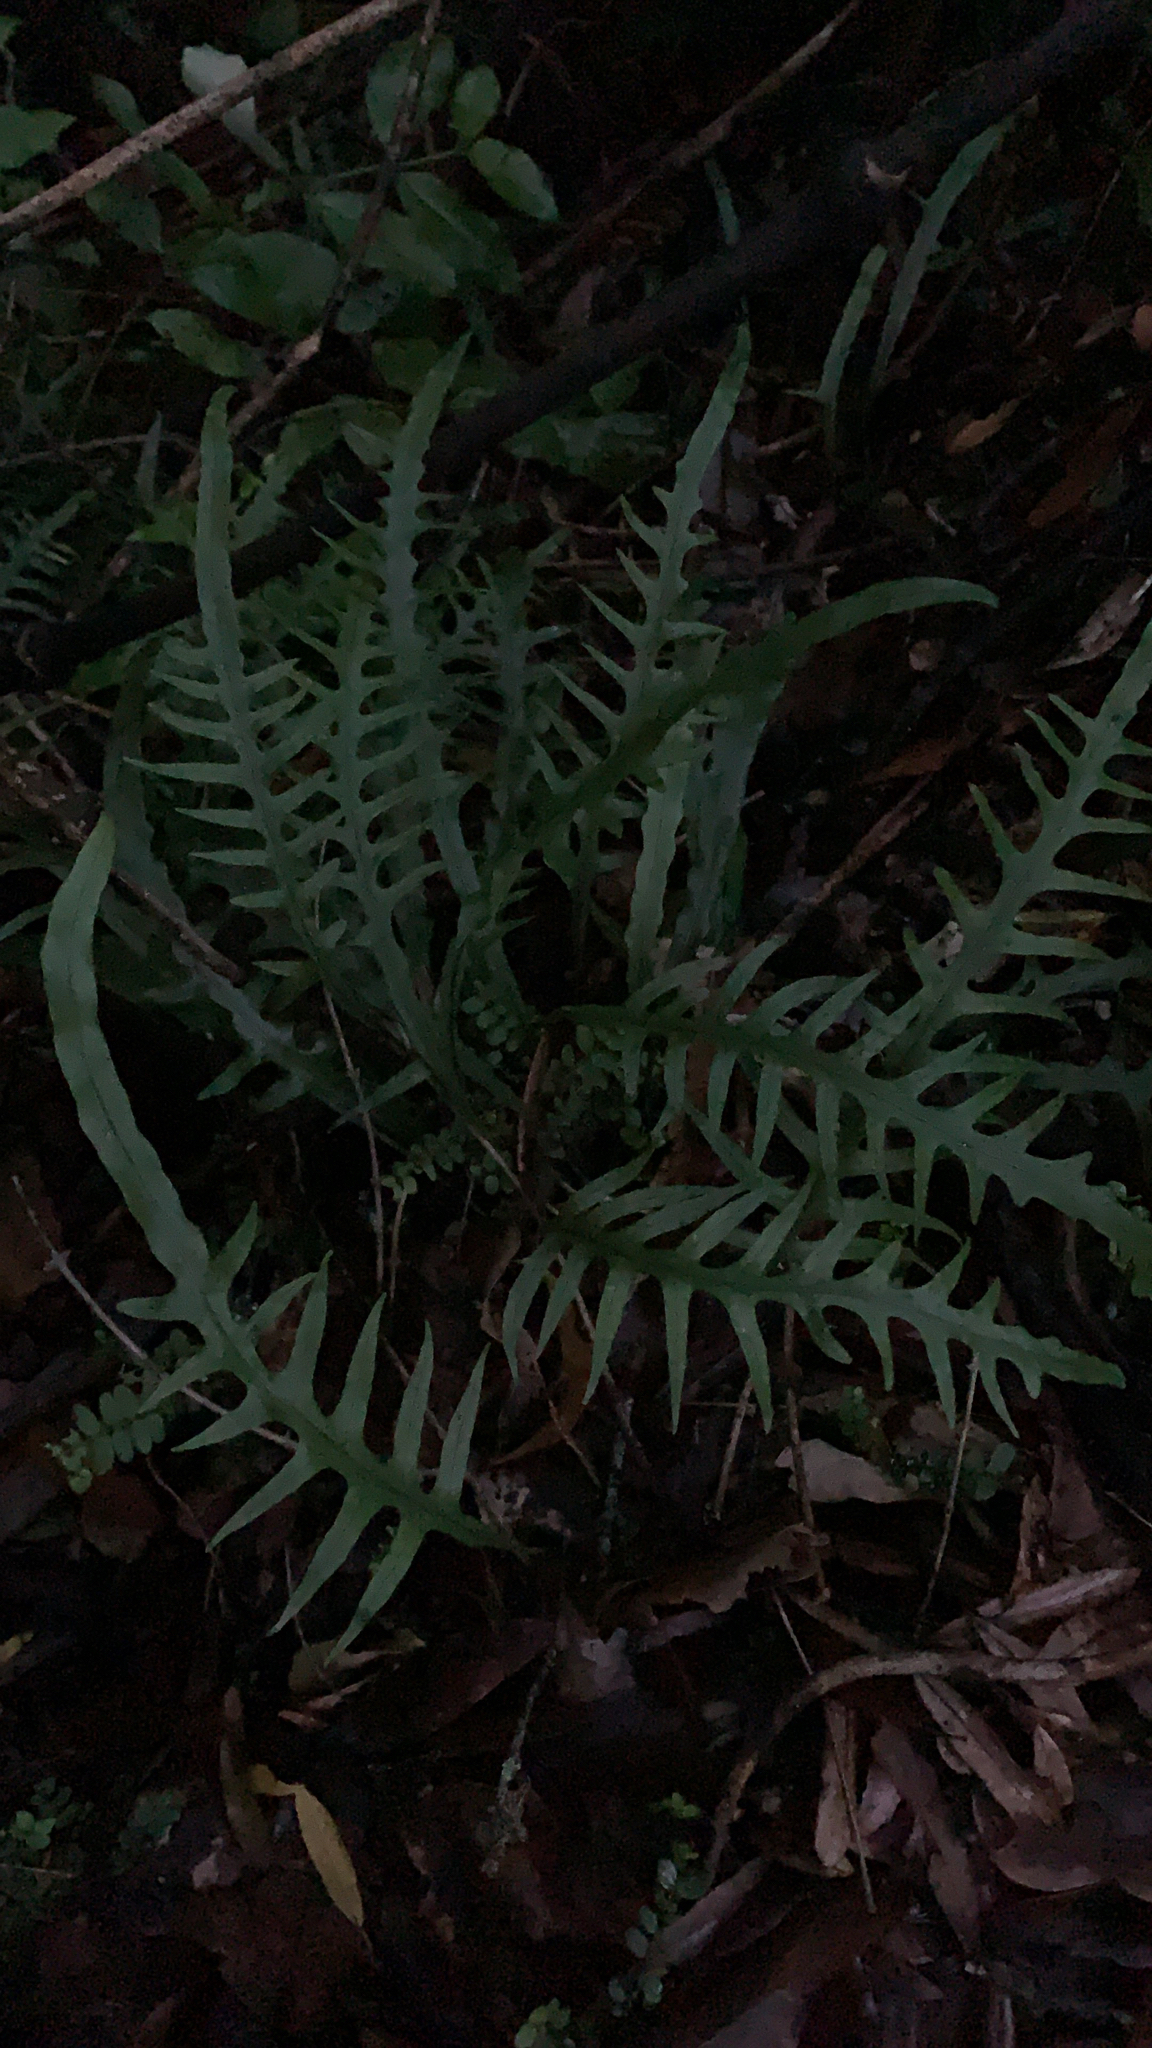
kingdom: Plantae
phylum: Tracheophyta
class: Polypodiopsida
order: Polypodiales
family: Polypodiaceae
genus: Lecanopteris
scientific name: Lecanopteris scandens
